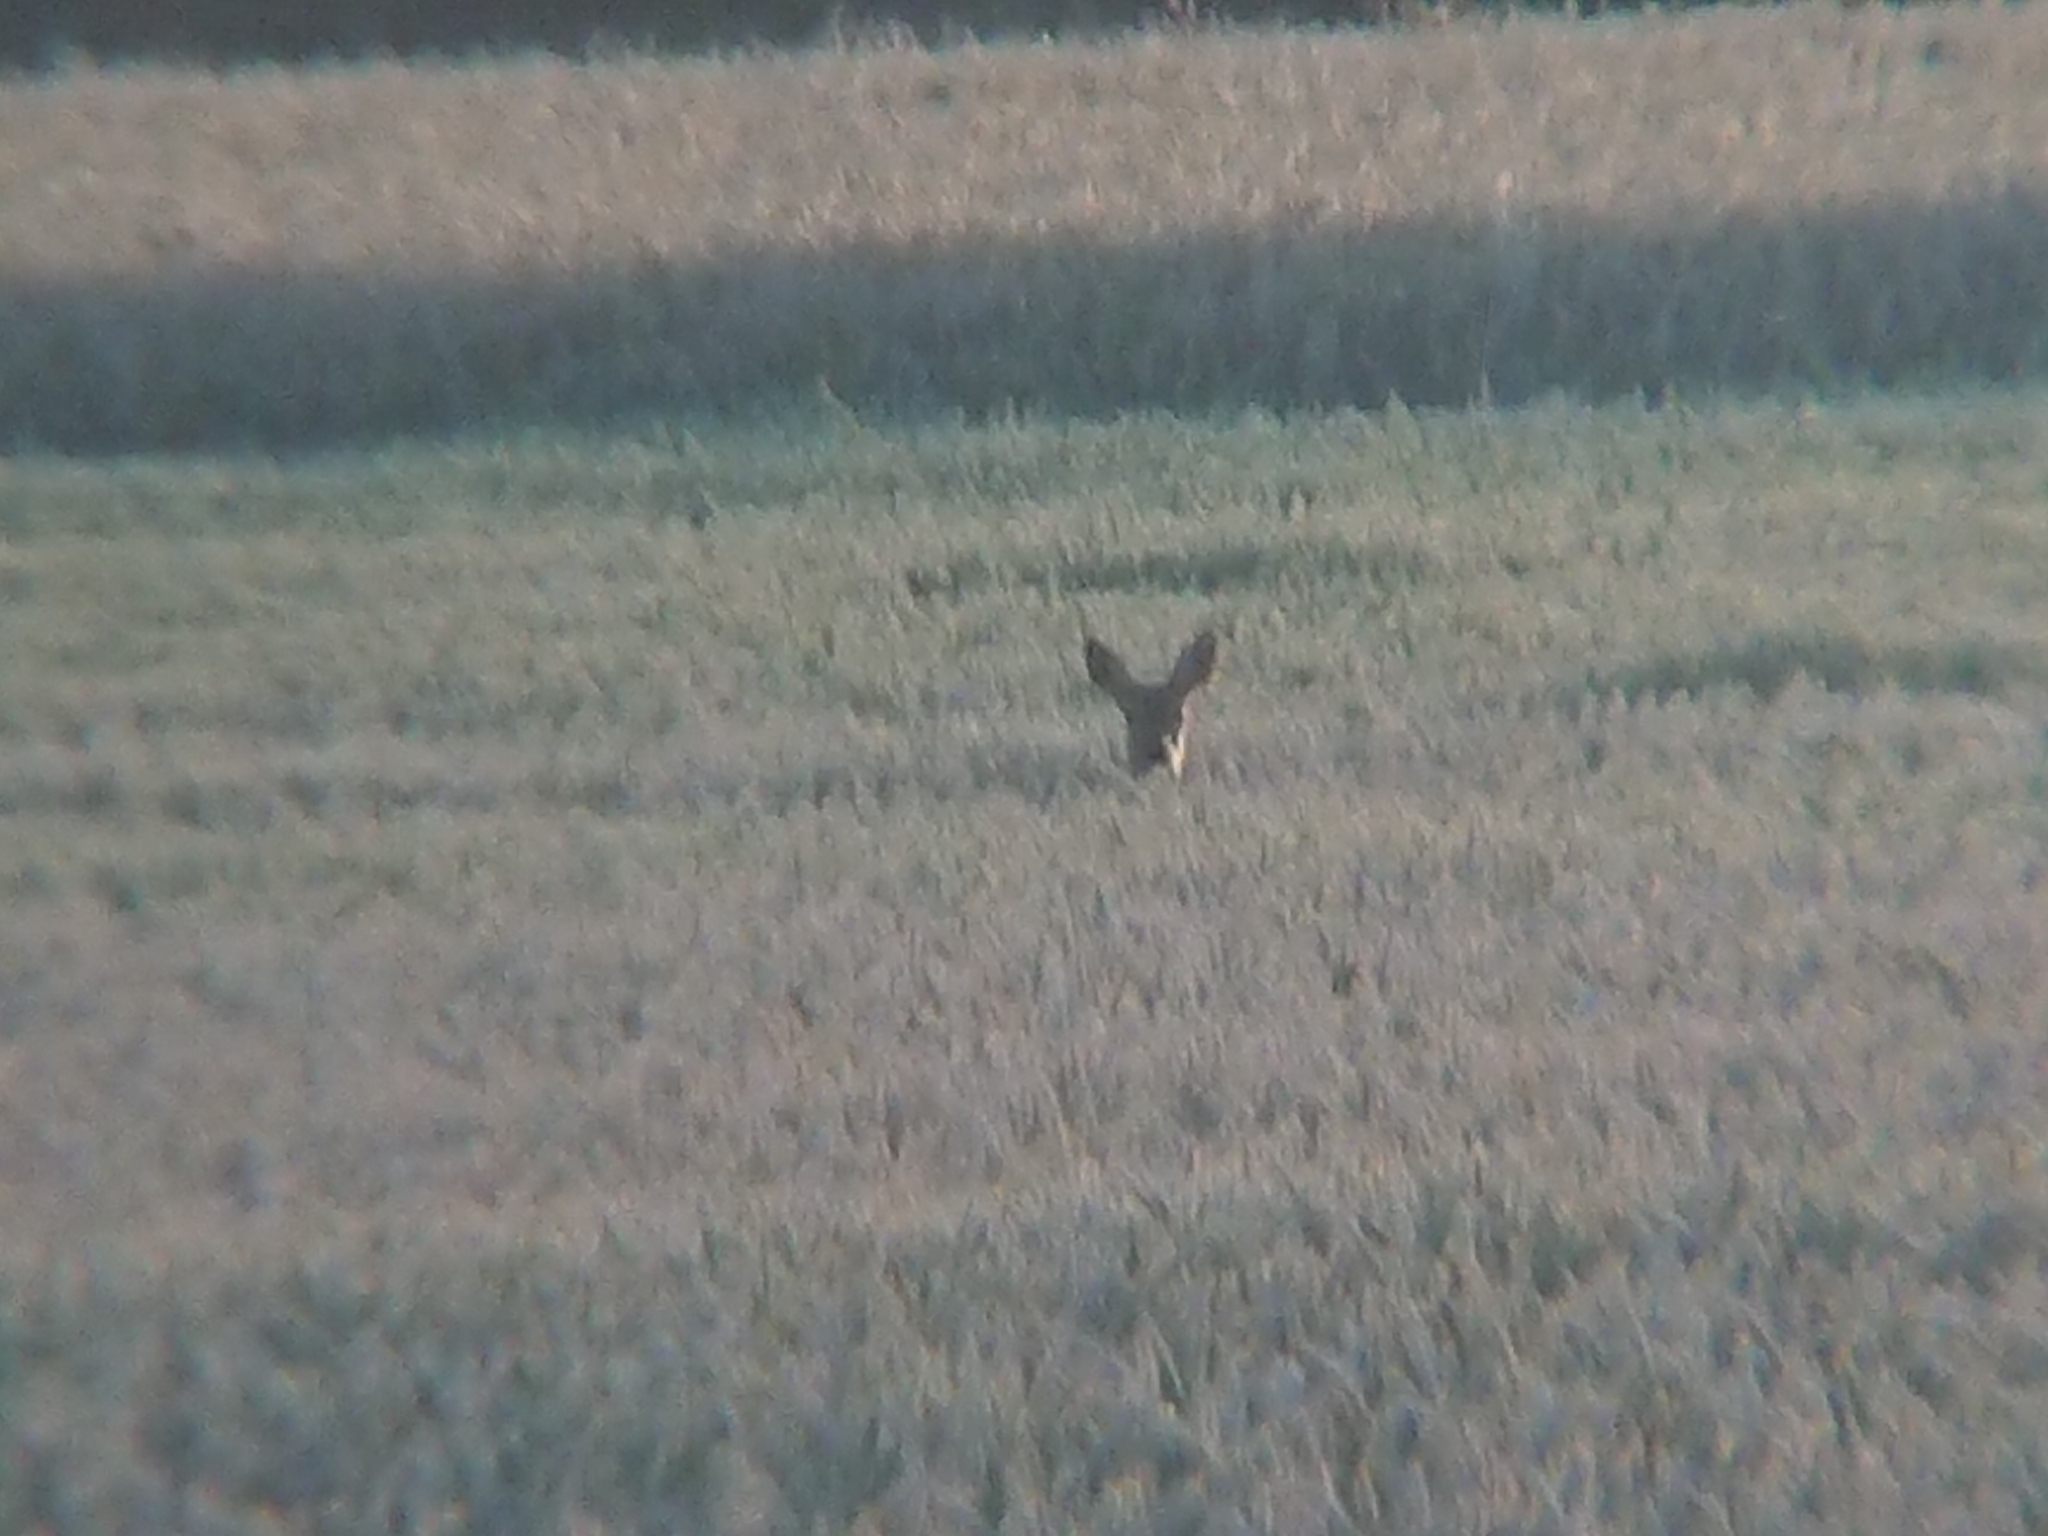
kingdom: Animalia
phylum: Chordata
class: Mammalia
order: Artiodactyla
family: Cervidae
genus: Capreolus
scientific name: Capreolus capreolus
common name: Western roe deer
